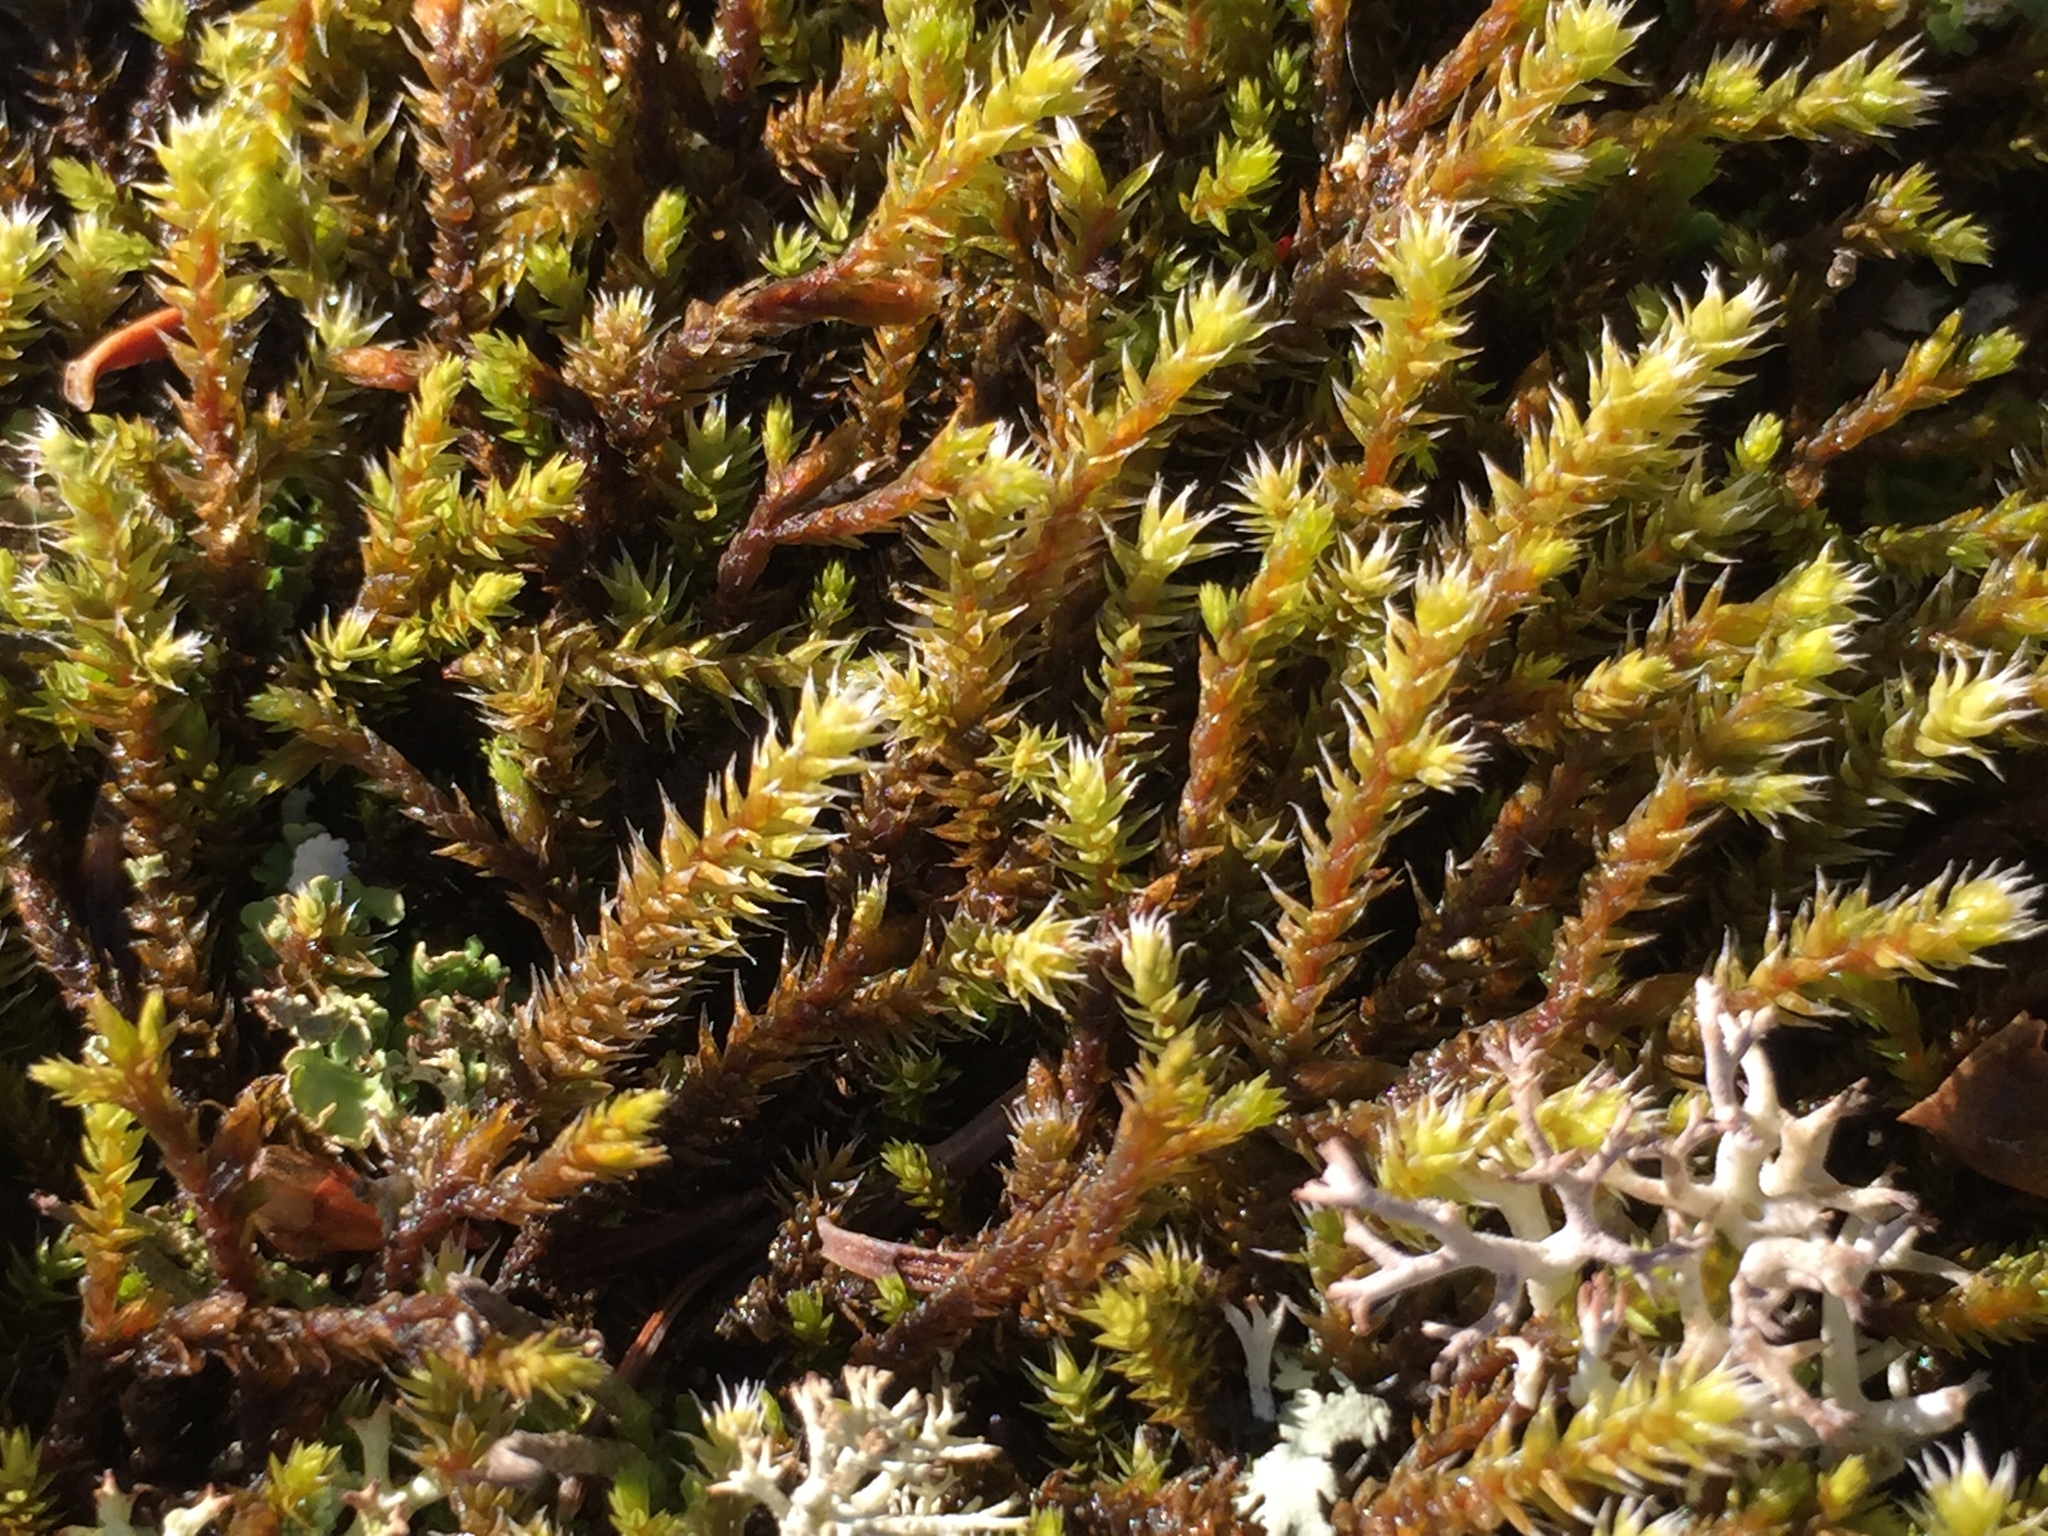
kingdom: Plantae
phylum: Bryophyta
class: Bryopsida
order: Hedwigiales
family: Hedwigiaceae
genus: Hedwigia
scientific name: Hedwigia ciliata
